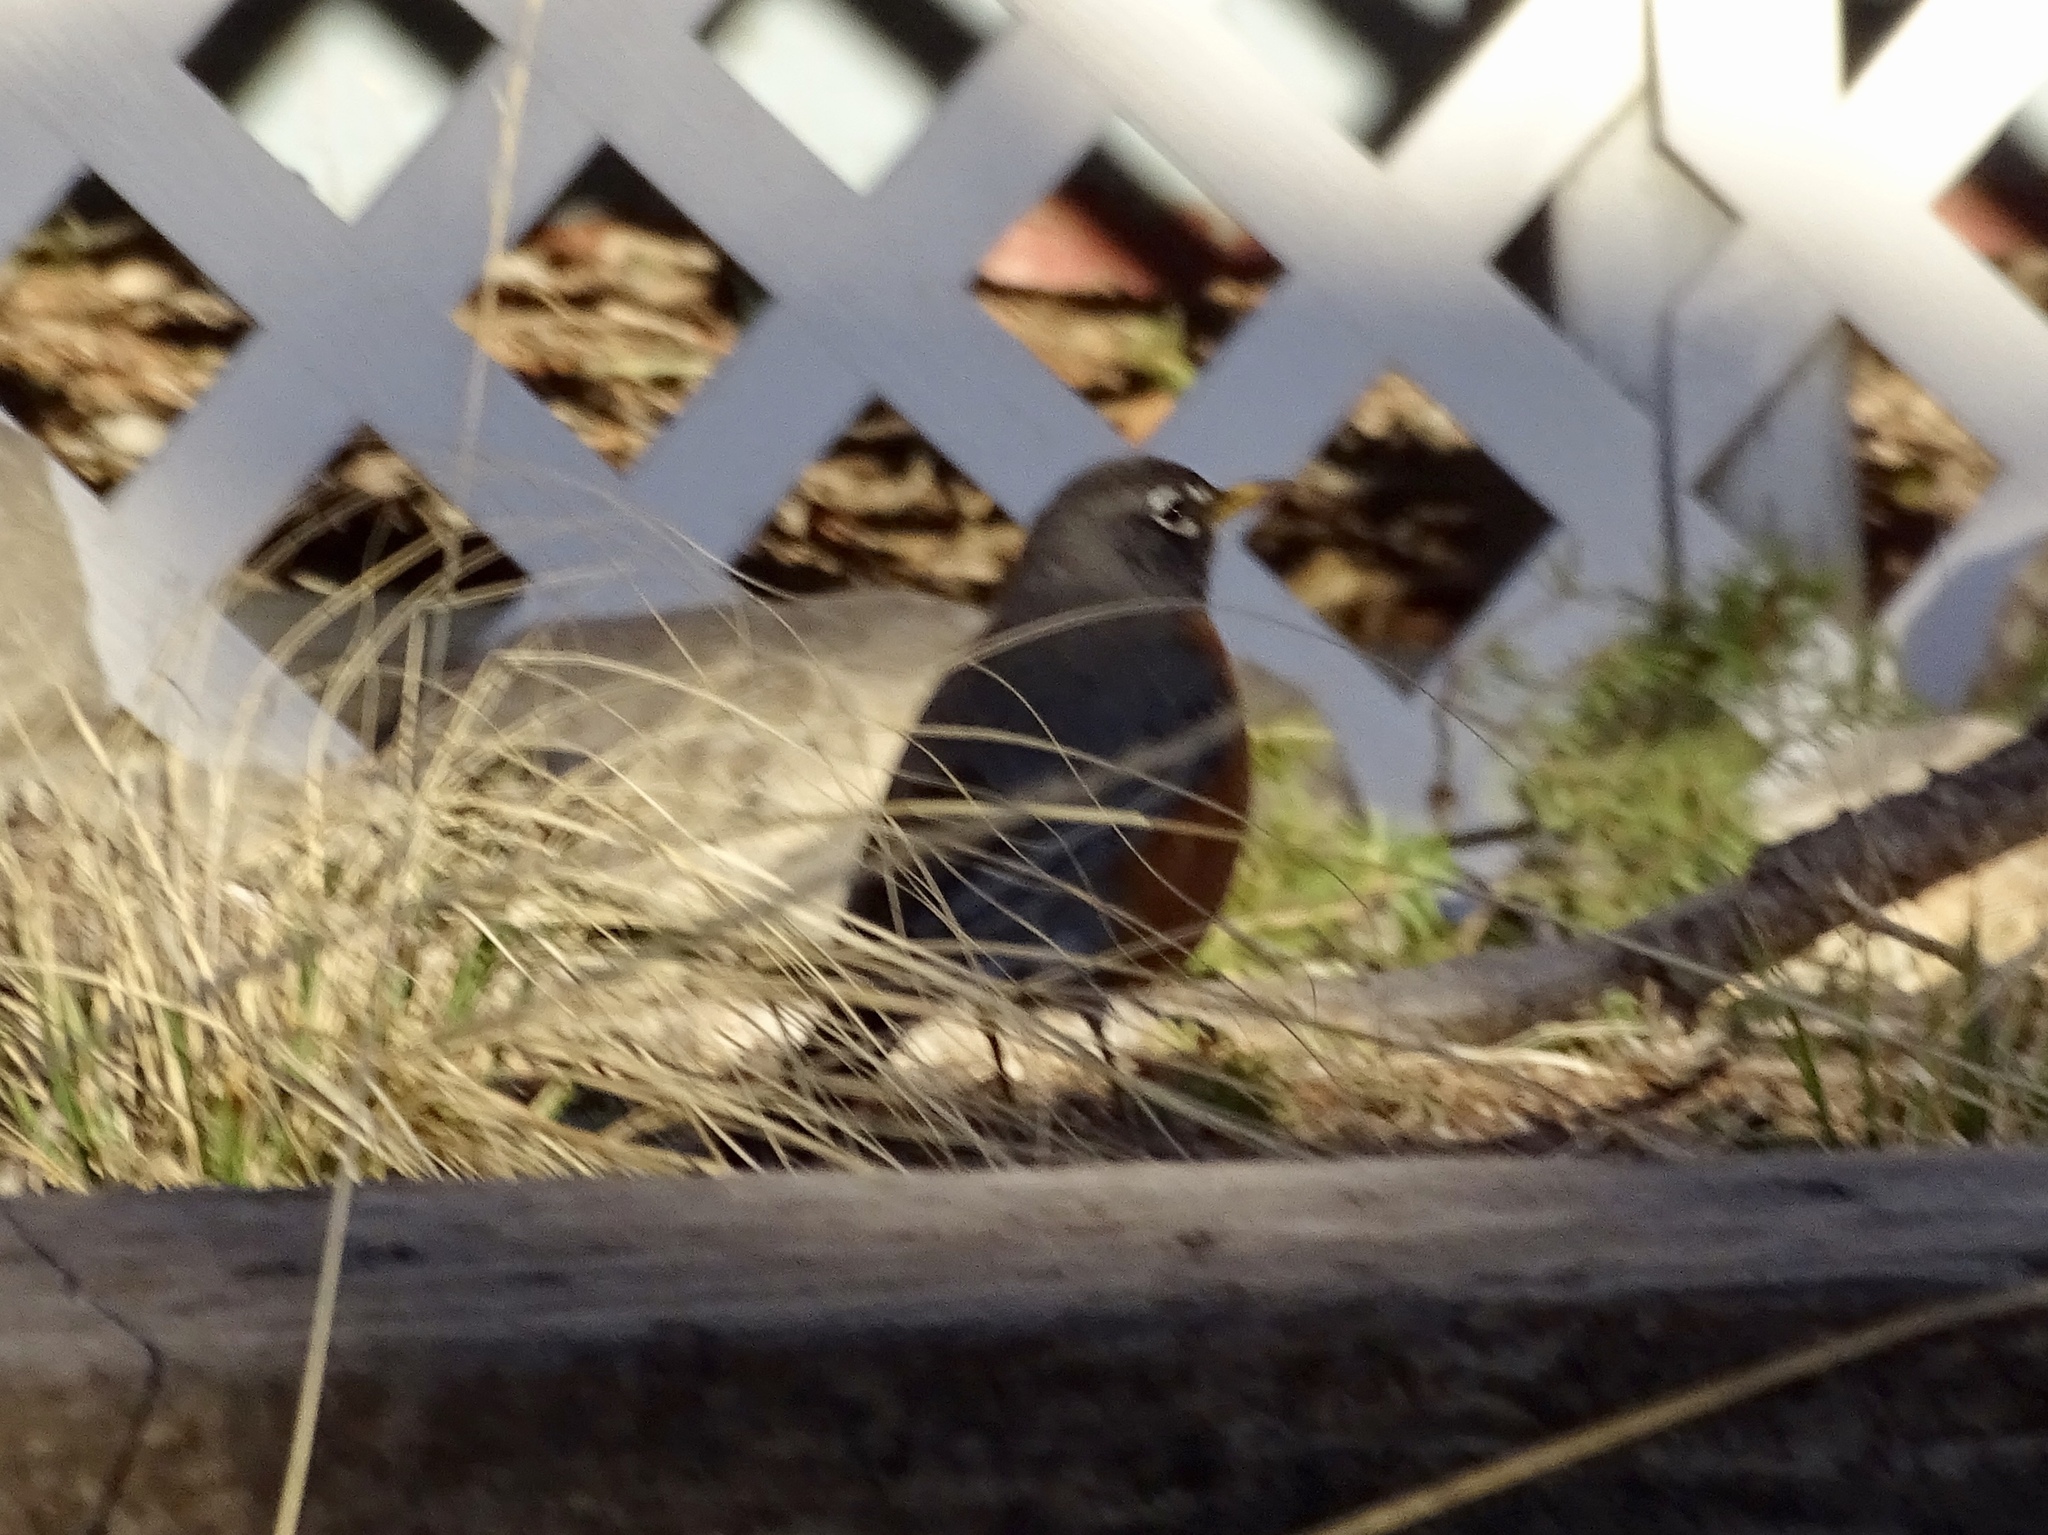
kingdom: Animalia
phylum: Chordata
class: Aves
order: Passeriformes
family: Turdidae
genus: Turdus
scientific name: Turdus migratorius
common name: American robin
